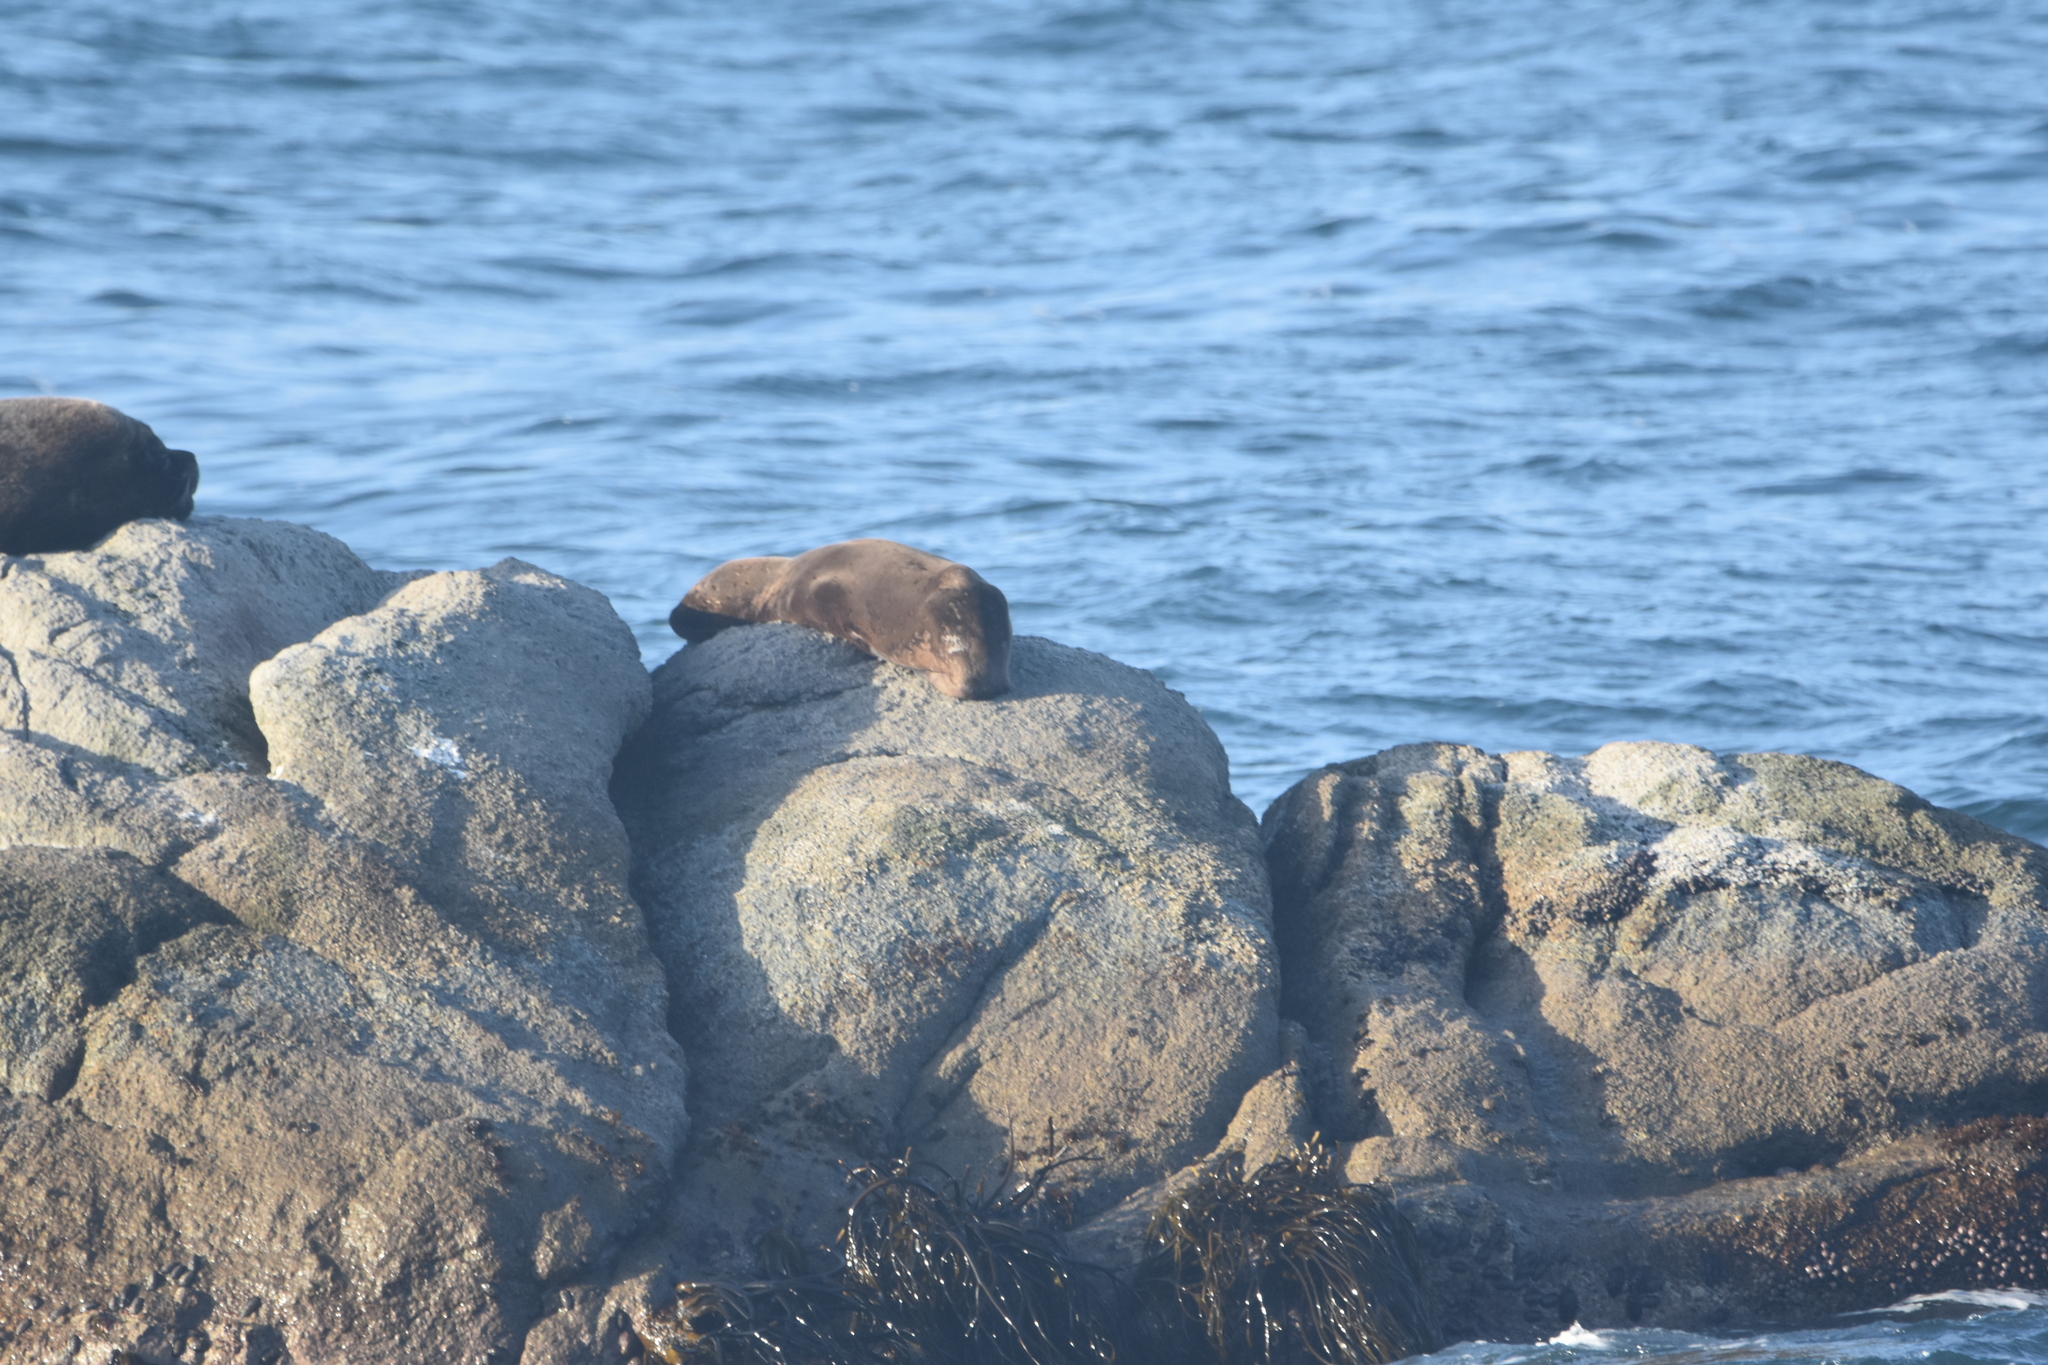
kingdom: Animalia
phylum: Chordata
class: Mammalia
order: Carnivora
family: Otariidae
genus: Otaria
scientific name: Otaria byronia
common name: South american sea lion
